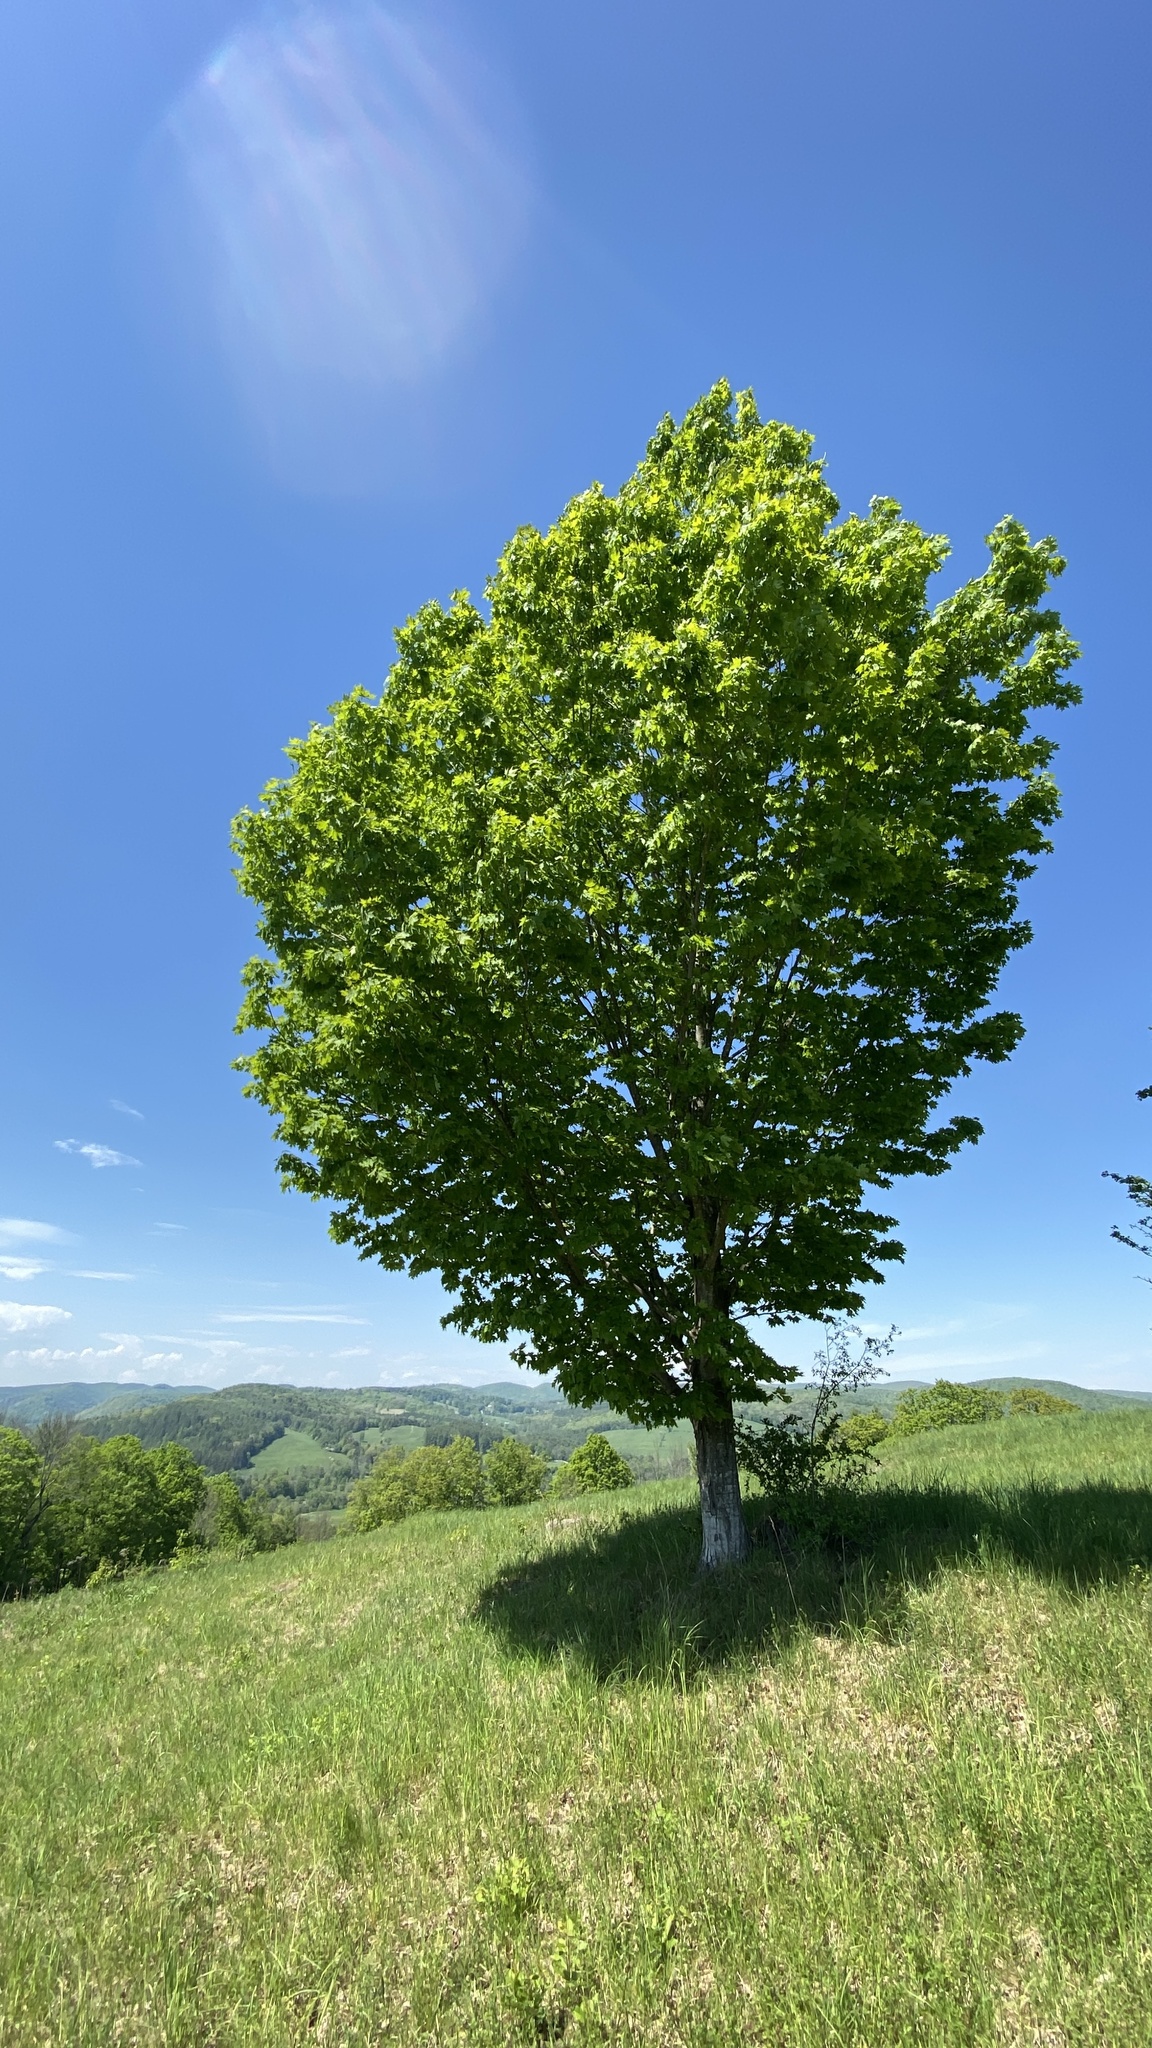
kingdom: Plantae
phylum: Tracheophyta
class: Magnoliopsida
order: Sapindales
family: Sapindaceae
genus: Acer
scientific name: Acer saccharum
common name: Sugar maple
